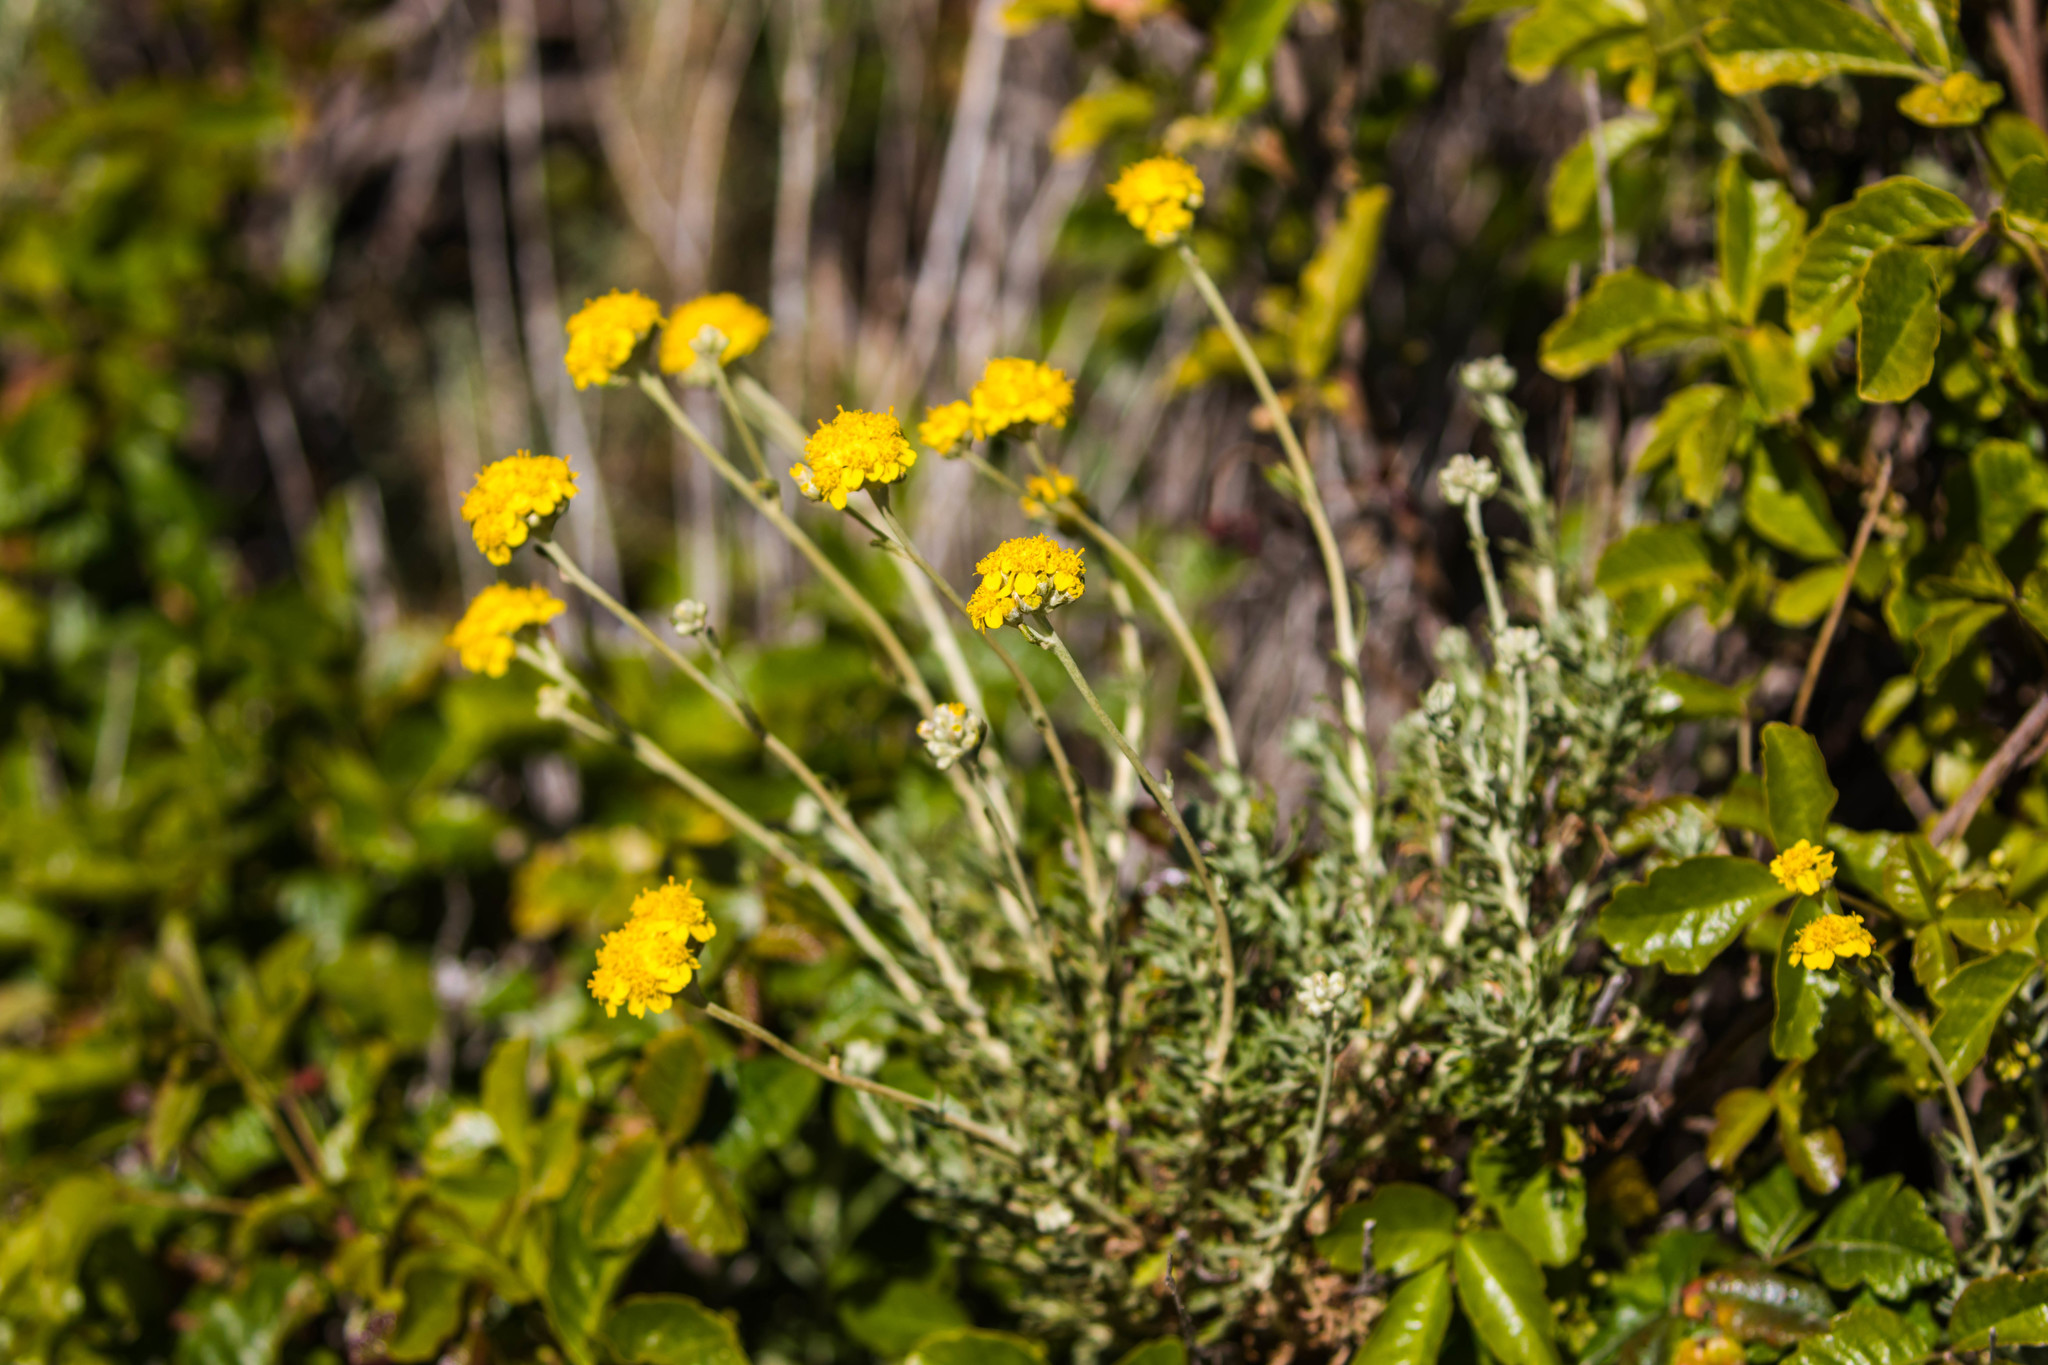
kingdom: Plantae
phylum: Tracheophyta
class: Magnoliopsida
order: Asterales
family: Asteraceae
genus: Eriophyllum
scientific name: Eriophyllum confertiflorum
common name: Golden-yarrow
